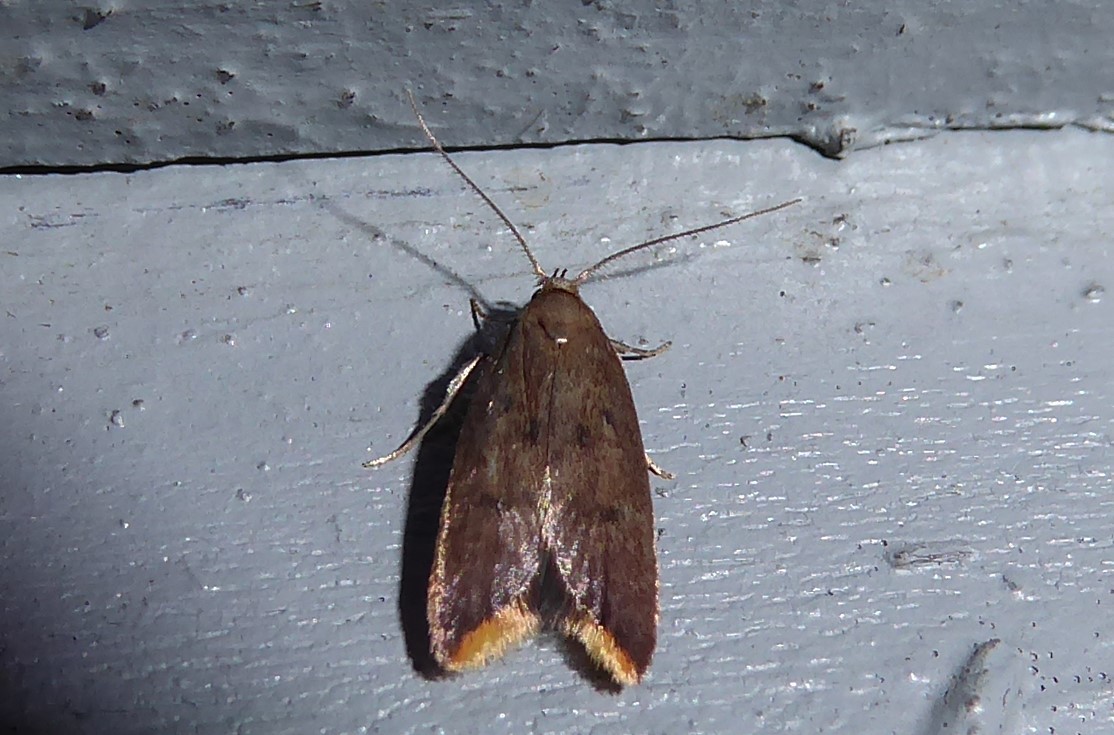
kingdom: Animalia
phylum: Arthropoda
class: Insecta
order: Lepidoptera
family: Oecophoridae
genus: Tachystola
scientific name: Tachystola acroxantha
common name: Ruddy streak
